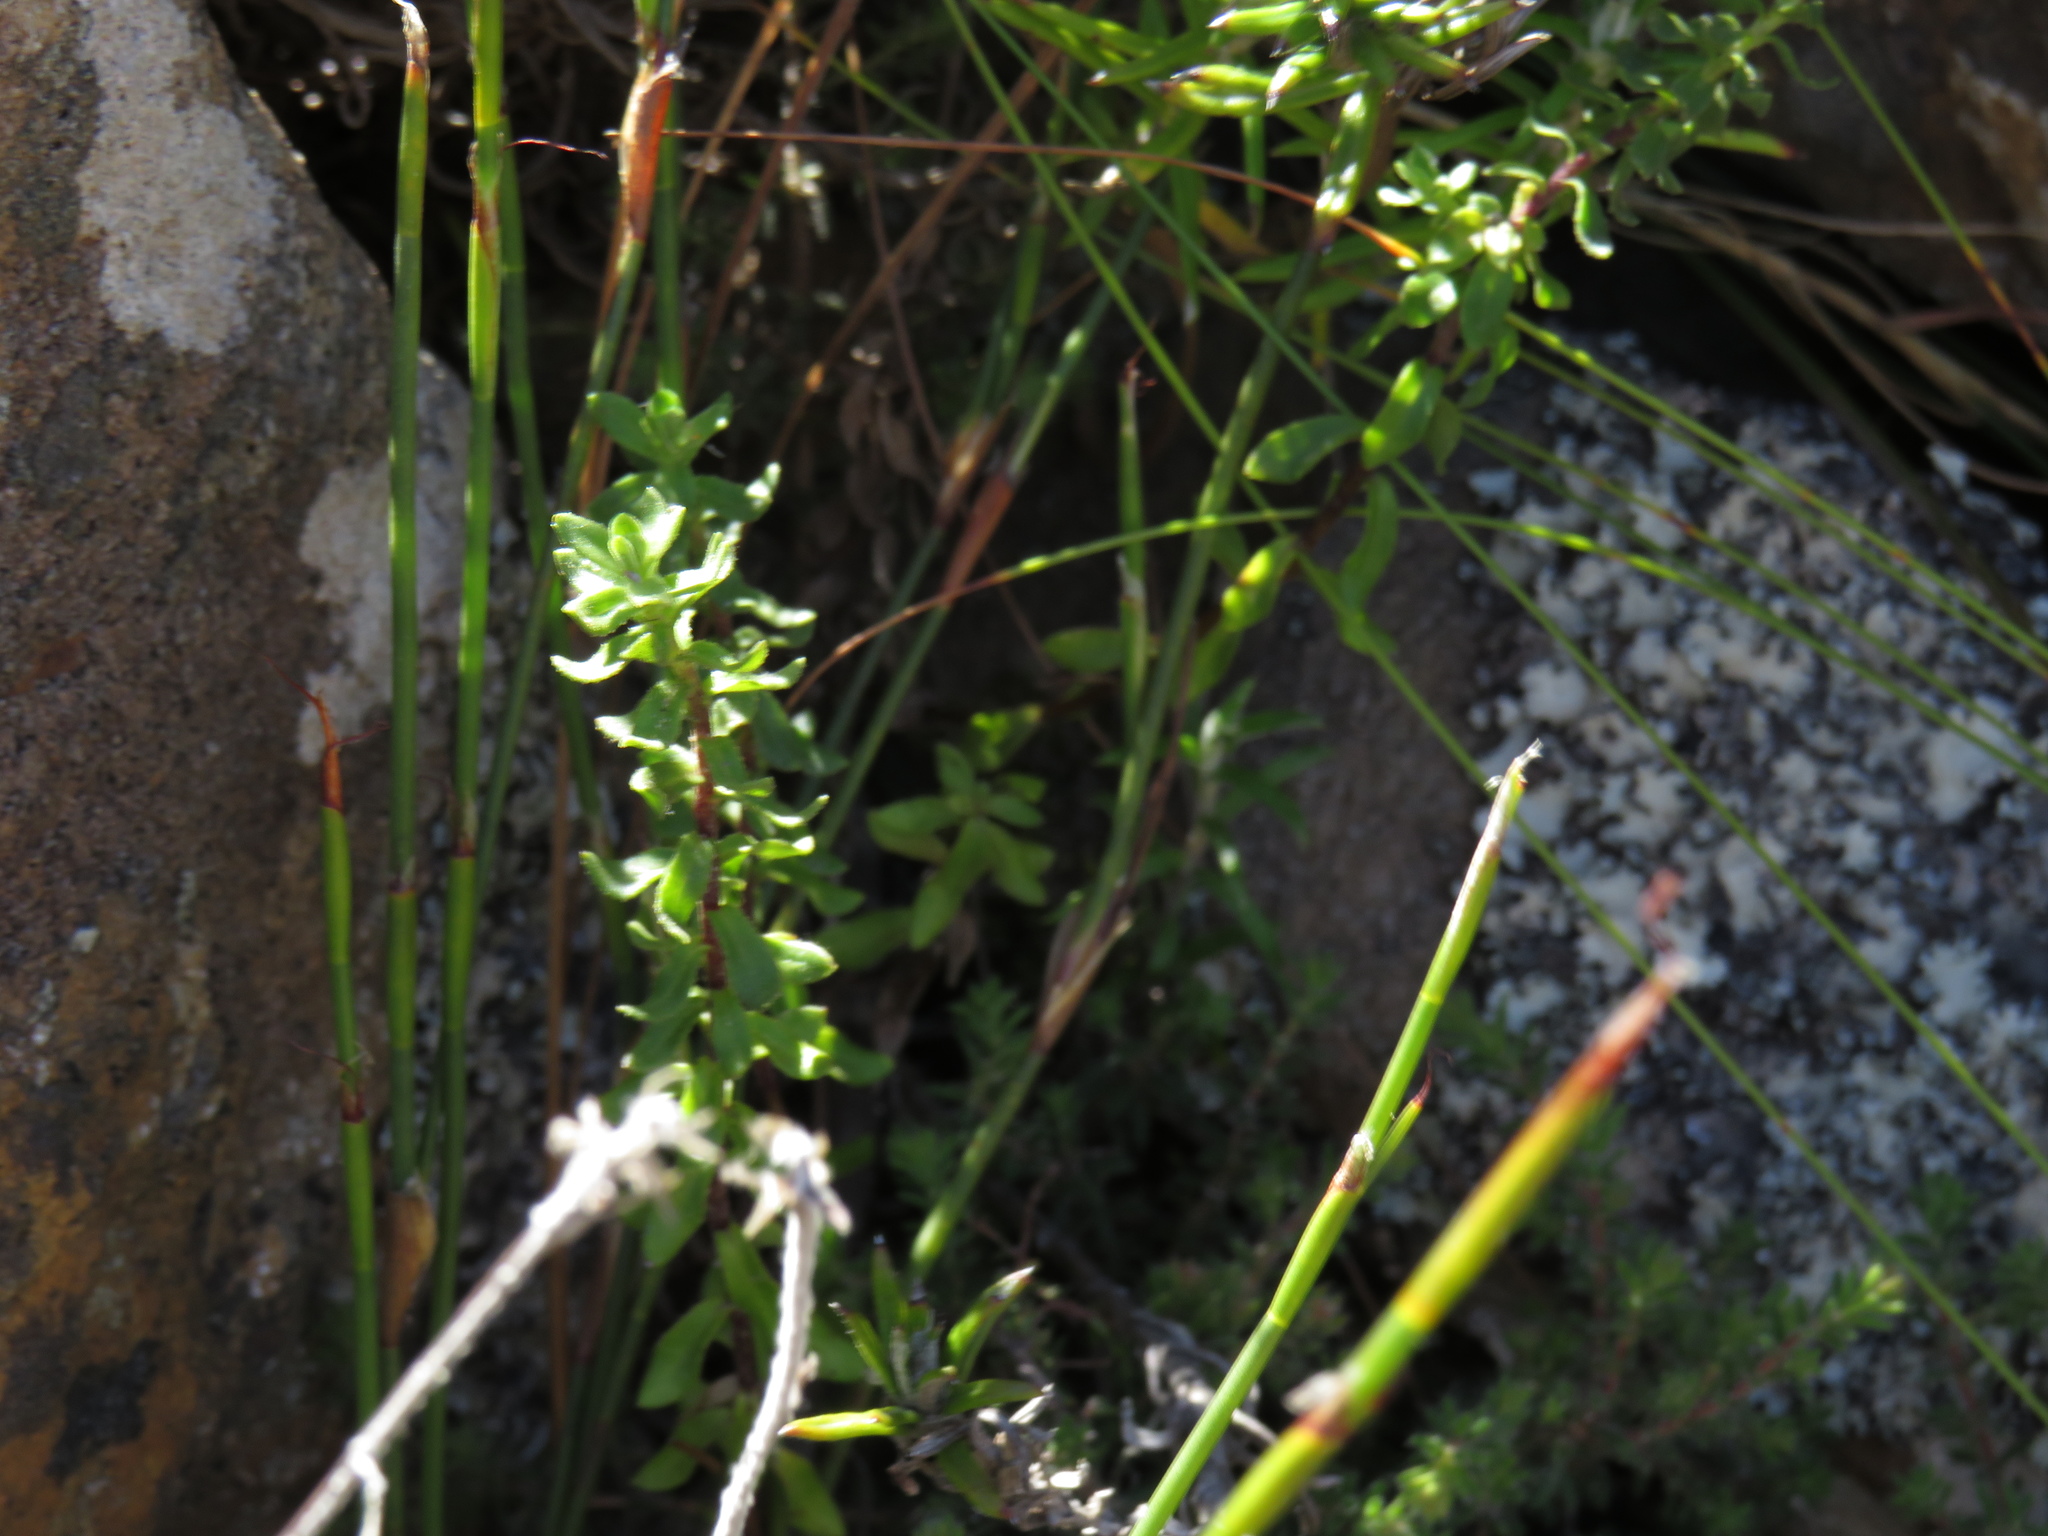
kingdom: Plantae
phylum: Tracheophyta
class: Magnoliopsida
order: Asterales
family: Asteraceae
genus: Felicia
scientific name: Felicia aethiopica
